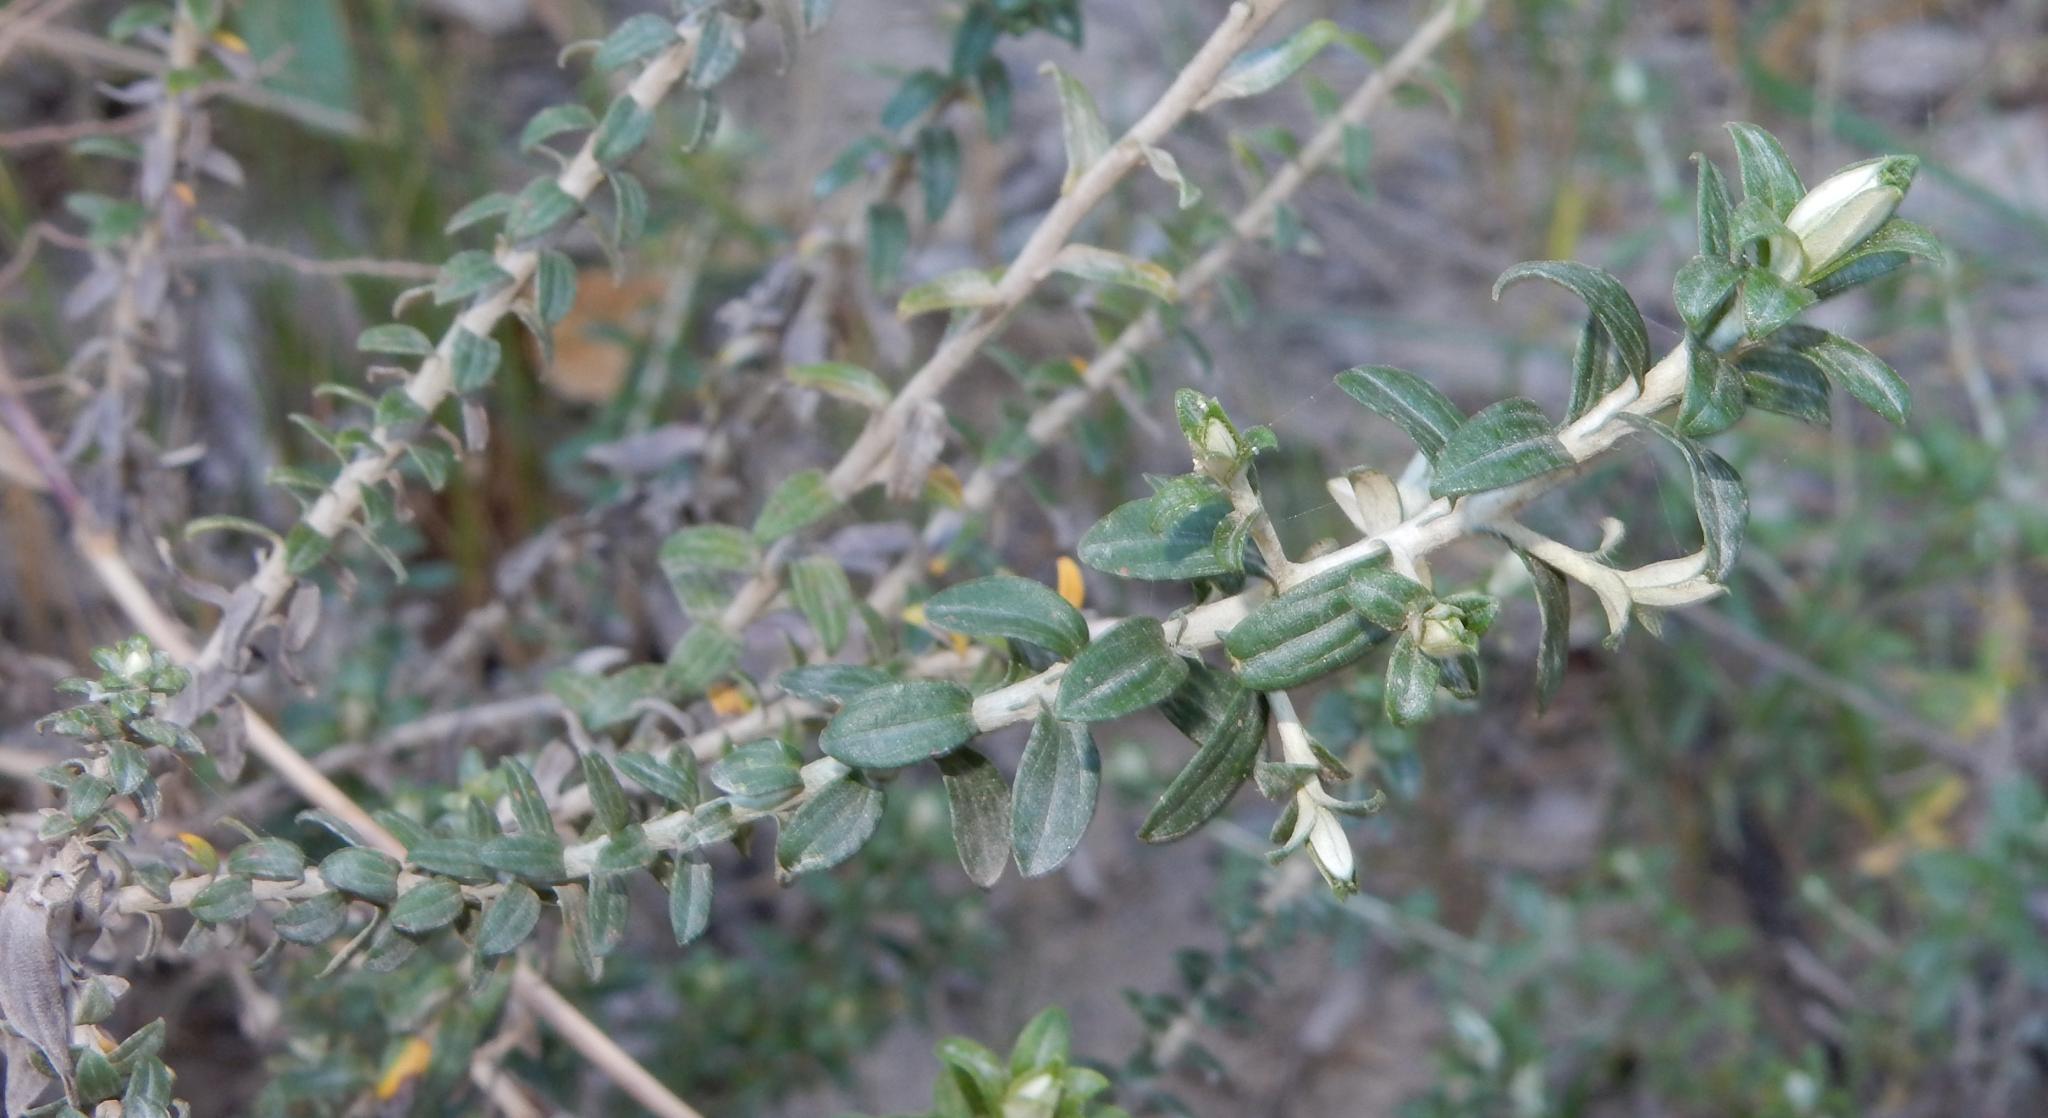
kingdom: Plantae
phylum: Tracheophyta
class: Magnoliopsida
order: Asterales
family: Asteraceae
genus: Helichrysum
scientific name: Helichrysum cymosum
